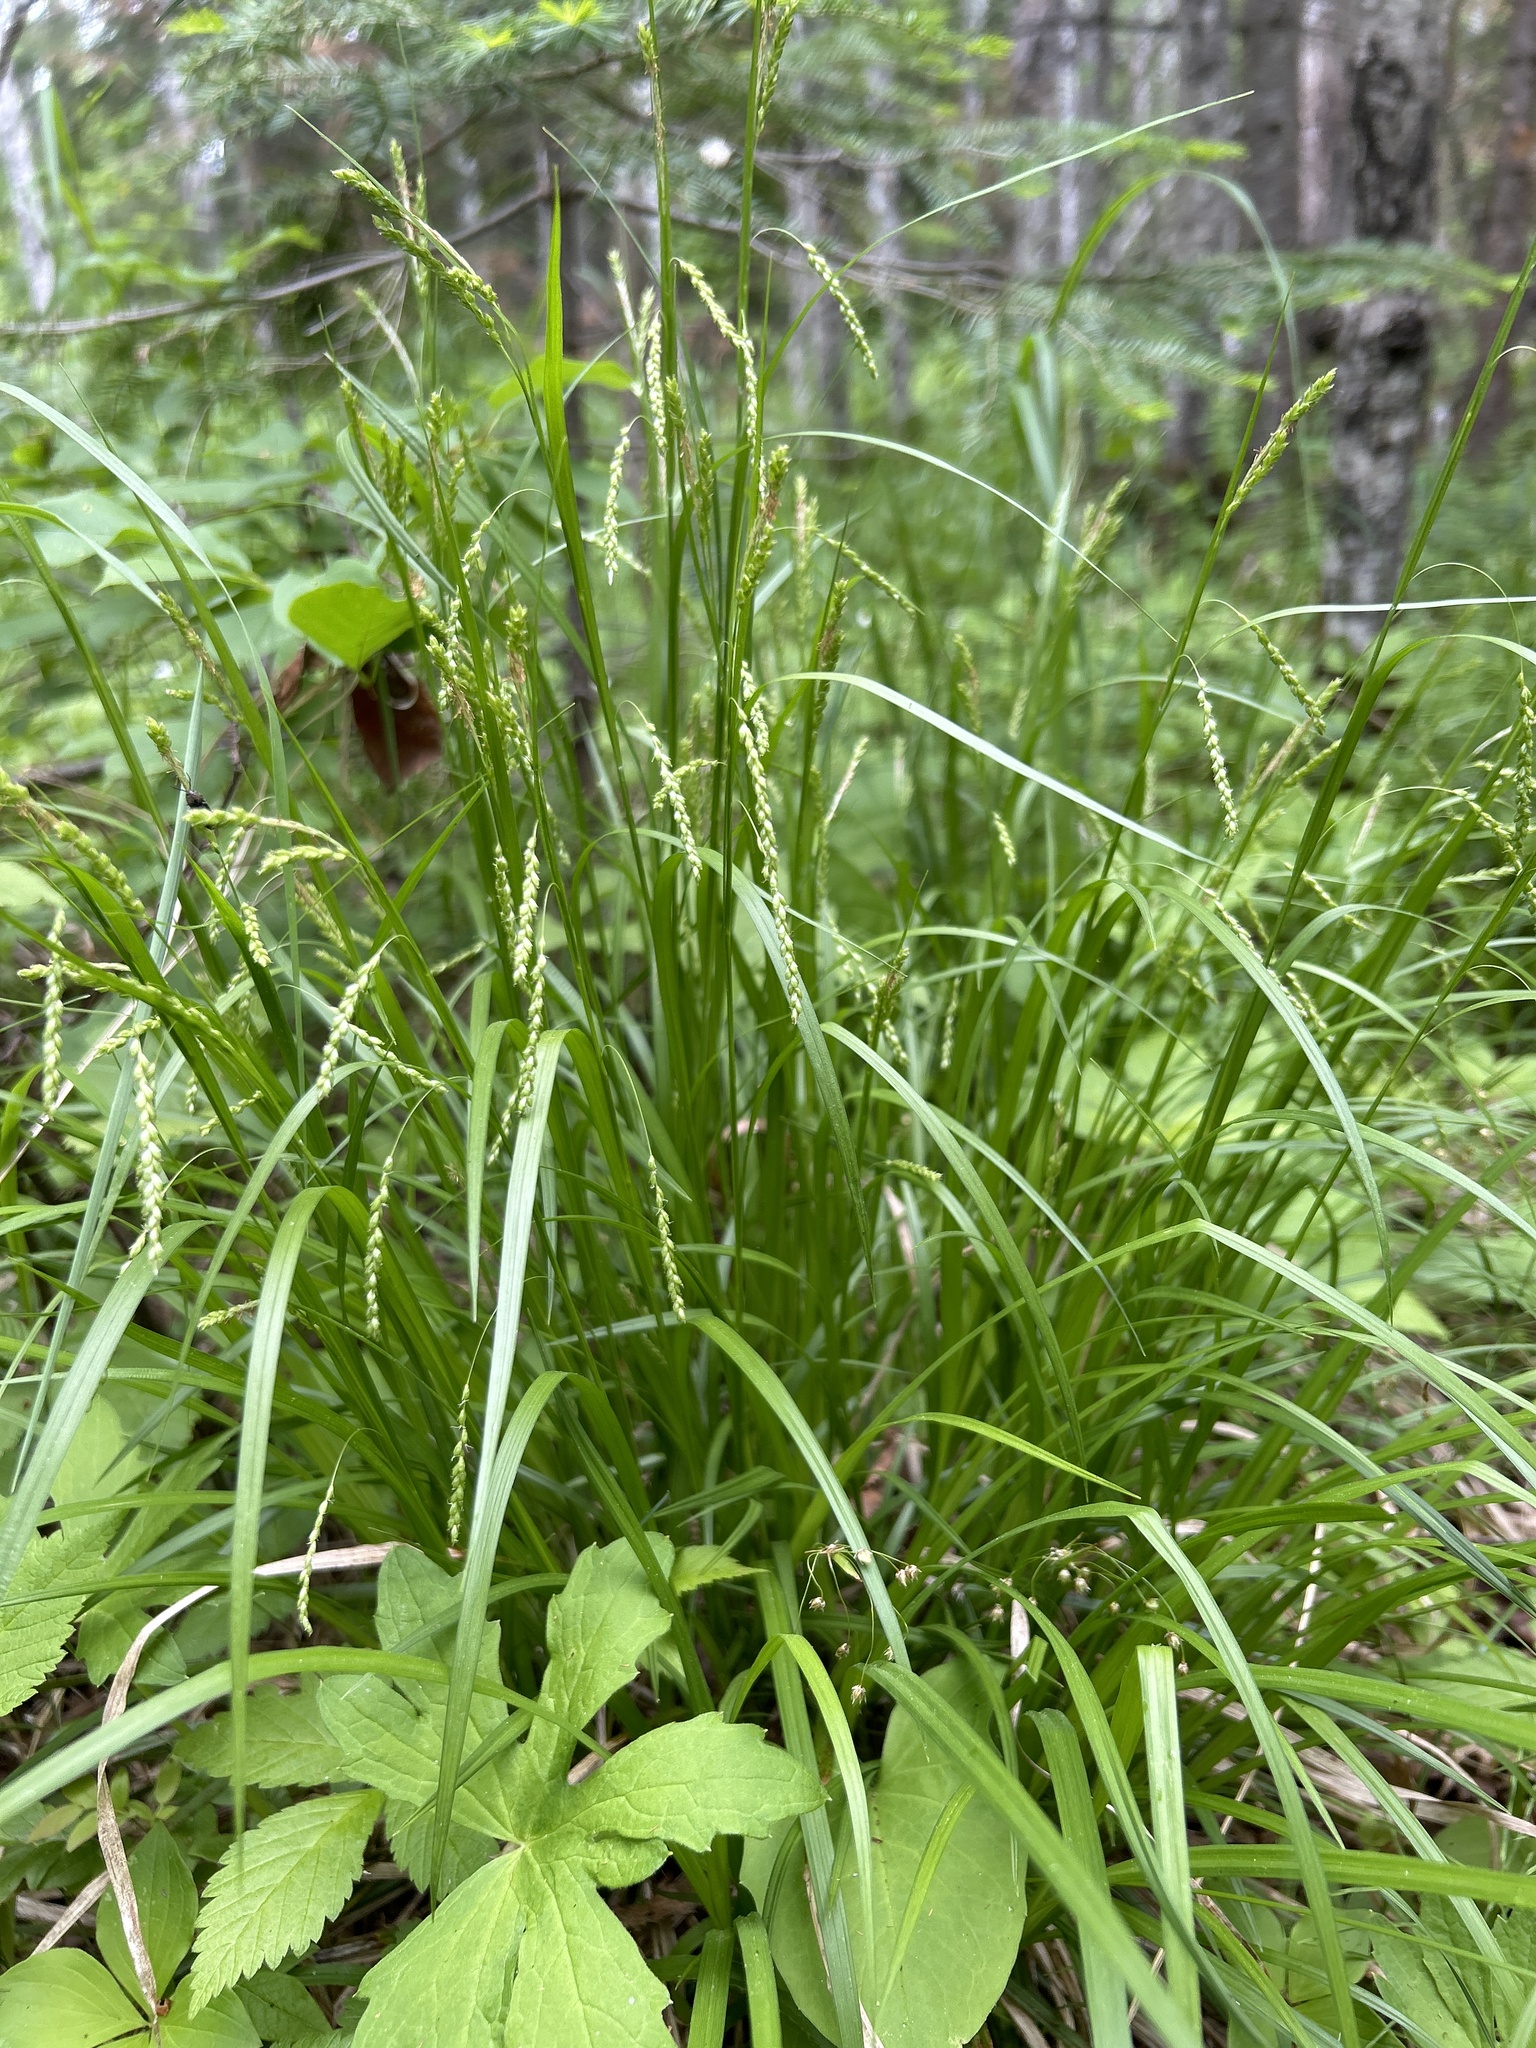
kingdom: Plantae
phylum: Tracheophyta
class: Liliopsida
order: Poales
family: Cyperaceae
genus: Carex
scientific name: Carex gracillima
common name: Graceful sedge
